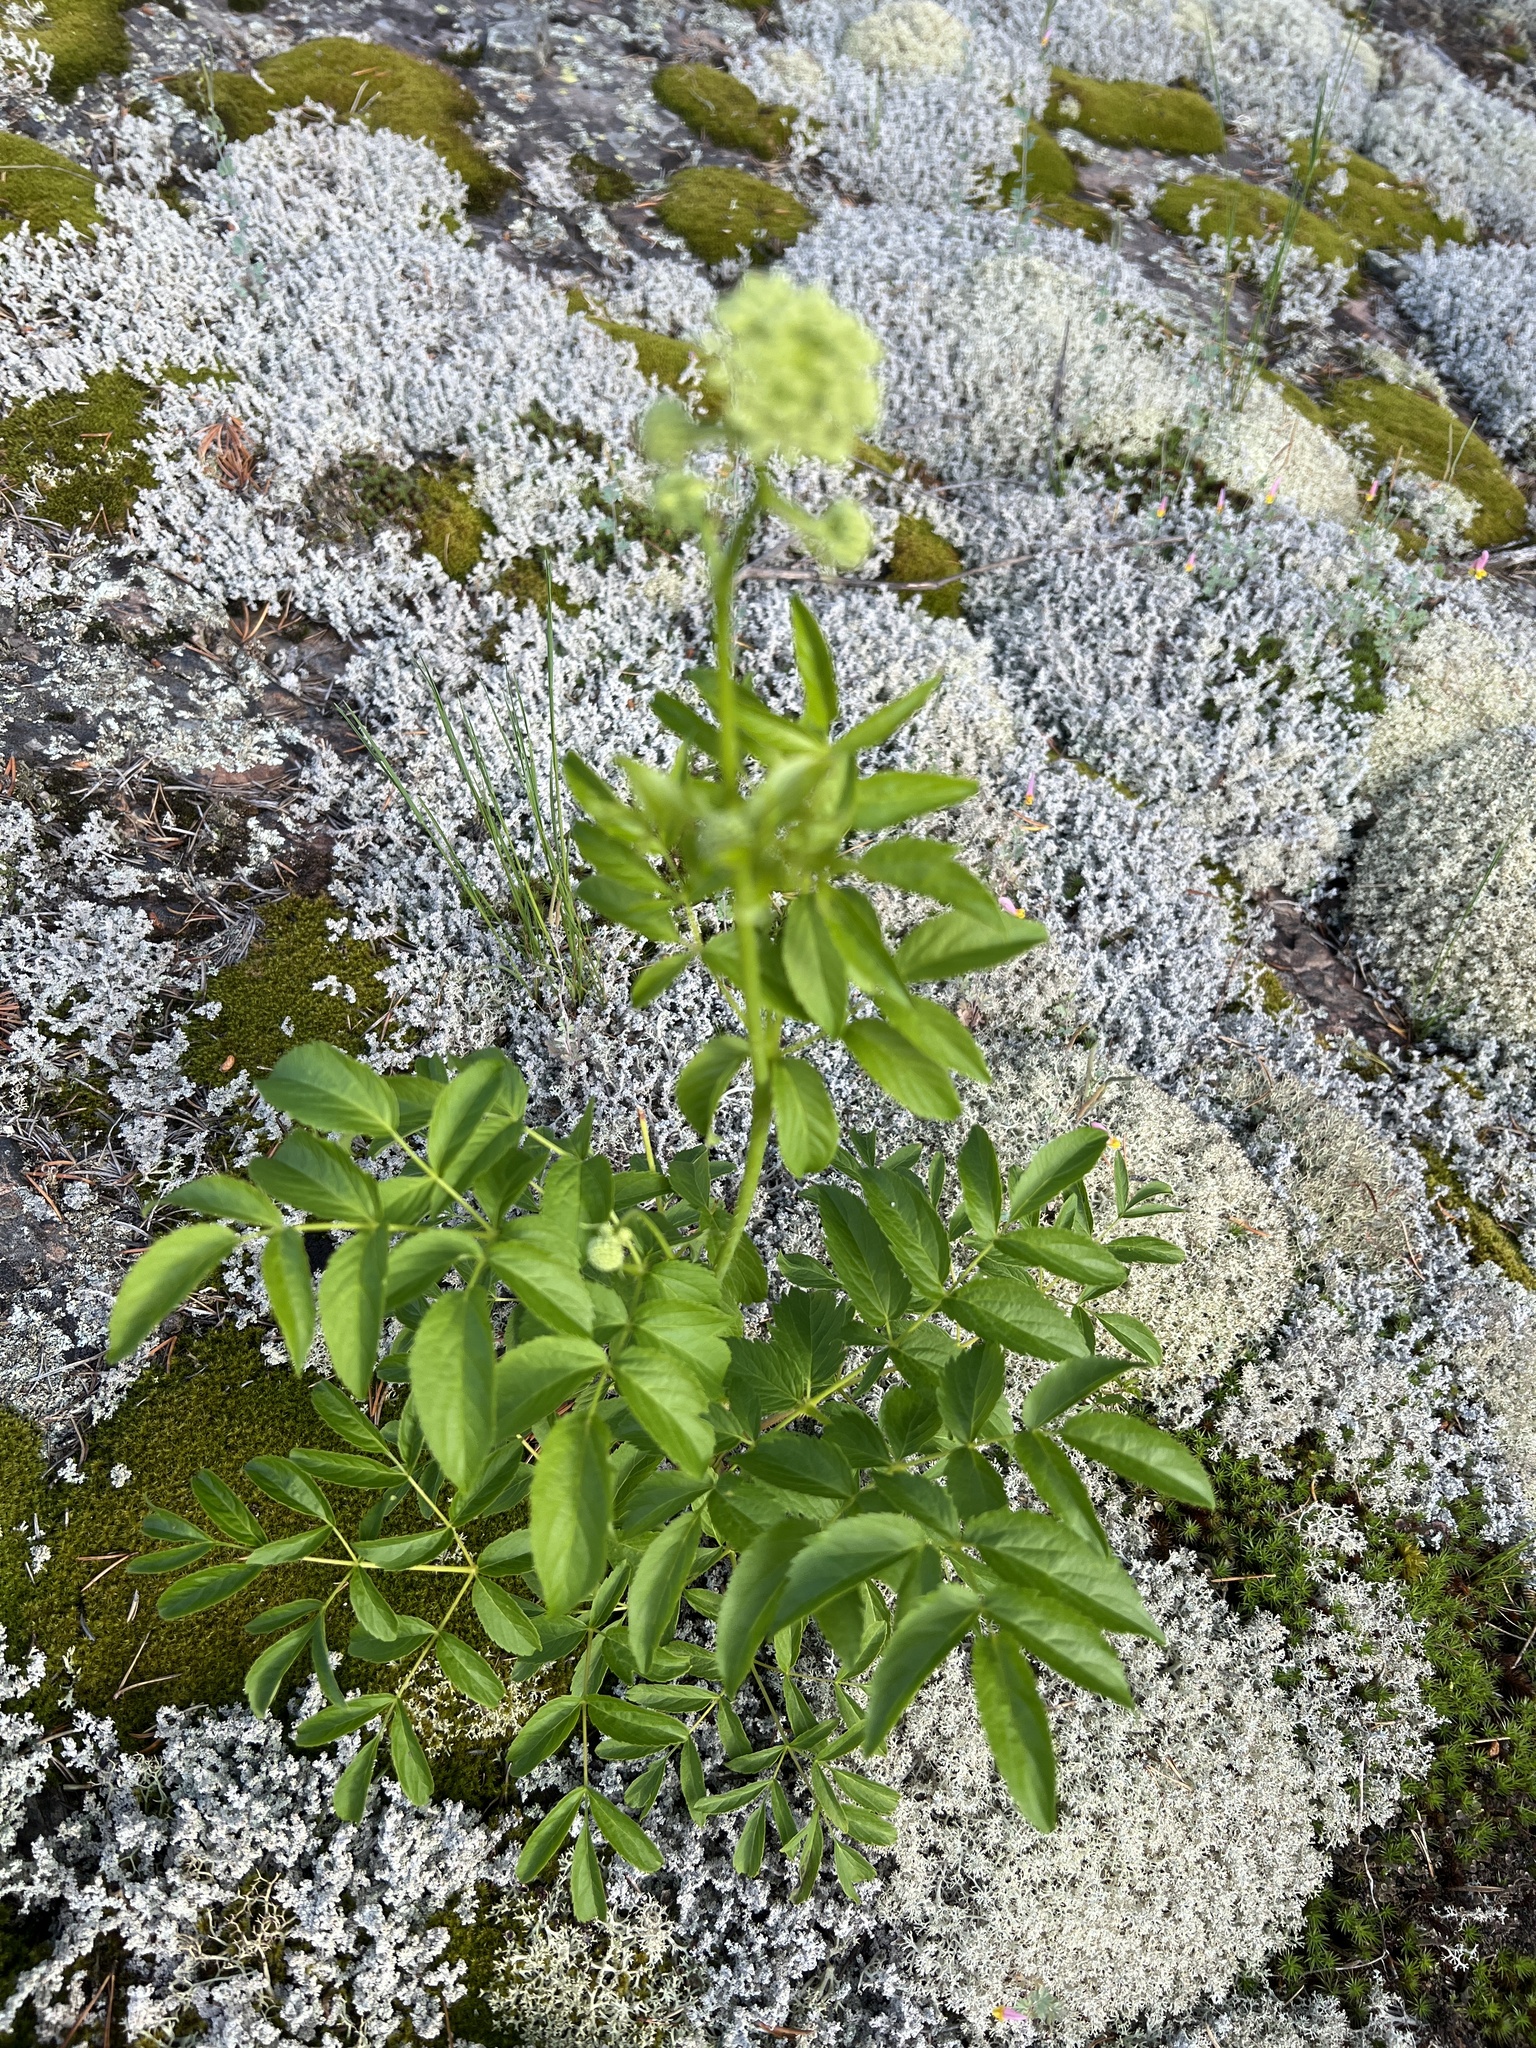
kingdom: Plantae
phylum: Tracheophyta
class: Magnoliopsida
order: Apiales
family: Araliaceae
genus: Aralia
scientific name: Aralia hispida
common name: Bristly sarsaparilla
